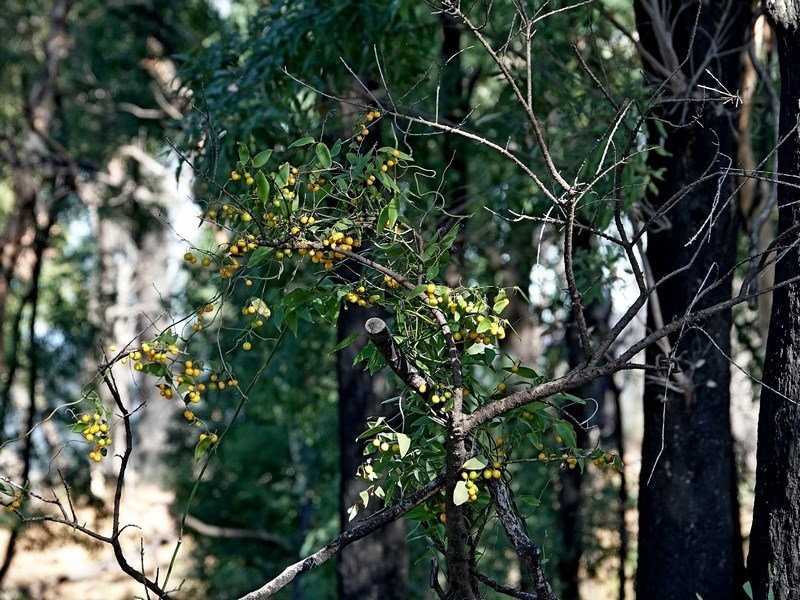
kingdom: Plantae
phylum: Tracheophyta
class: Liliopsida
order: Asparagales
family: Asparagaceae
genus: Eustrephus
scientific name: Eustrephus latifolius
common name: Orangevine
